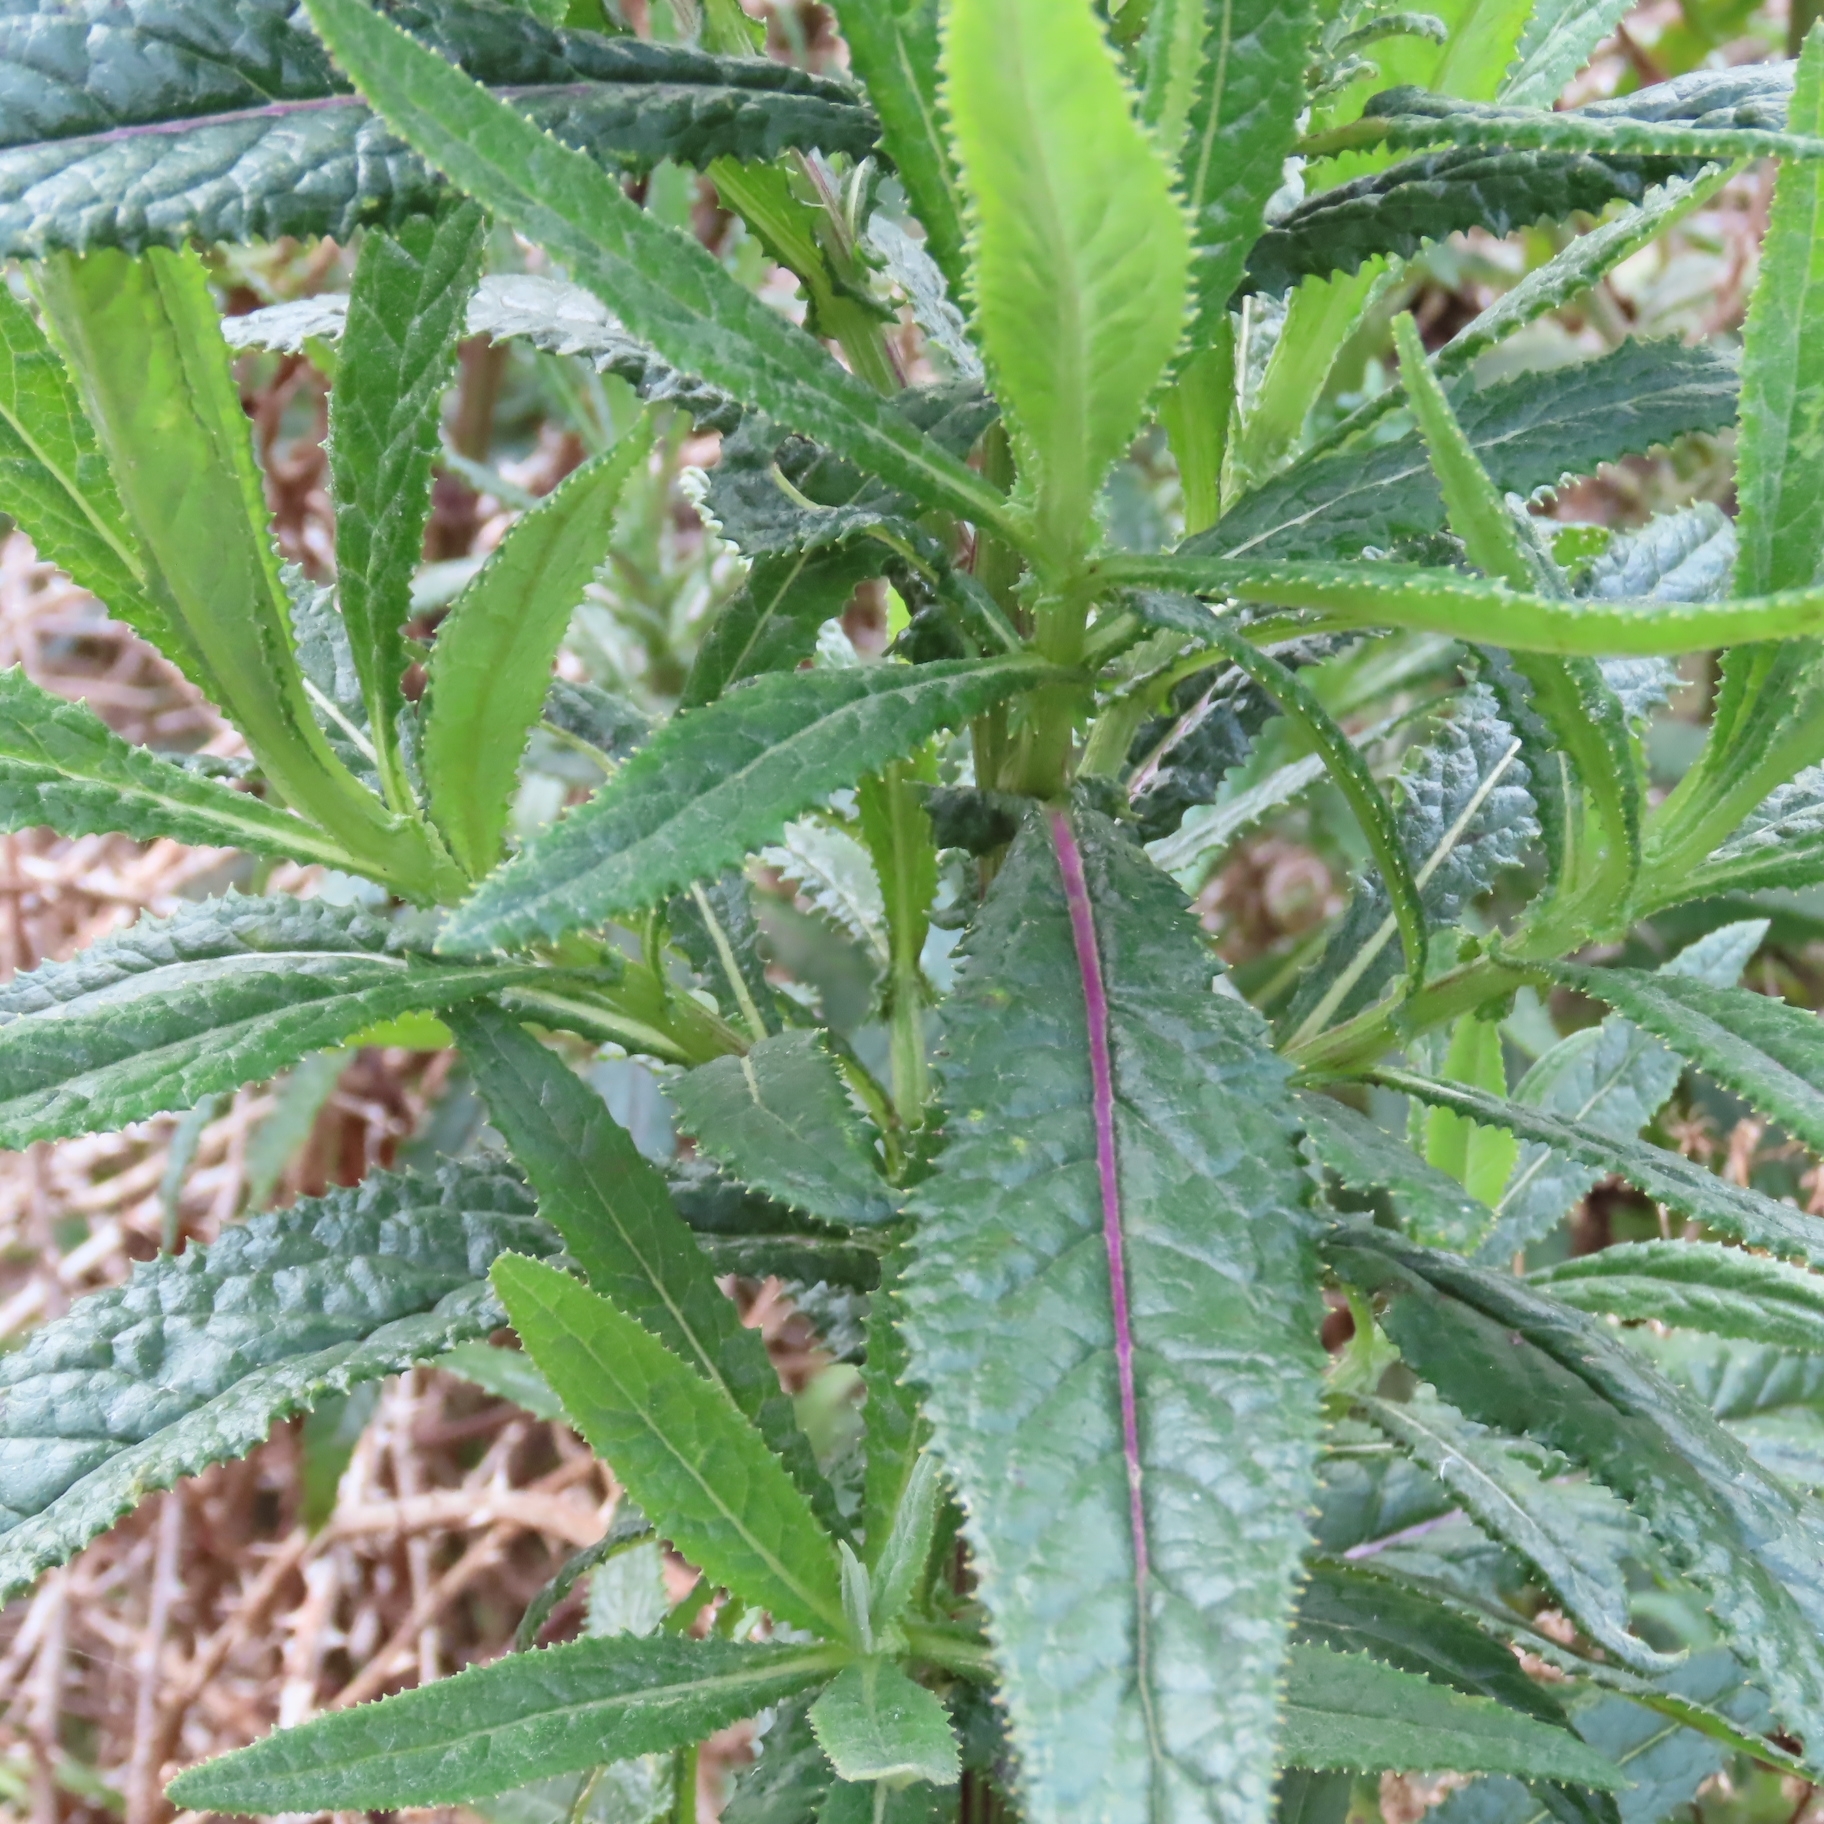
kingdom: Plantae
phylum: Tracheophyta
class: Magnoliopsida
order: Asterales
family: Asteraceae
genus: Senecio
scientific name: Senecio minimus
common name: Toothed fireweed
